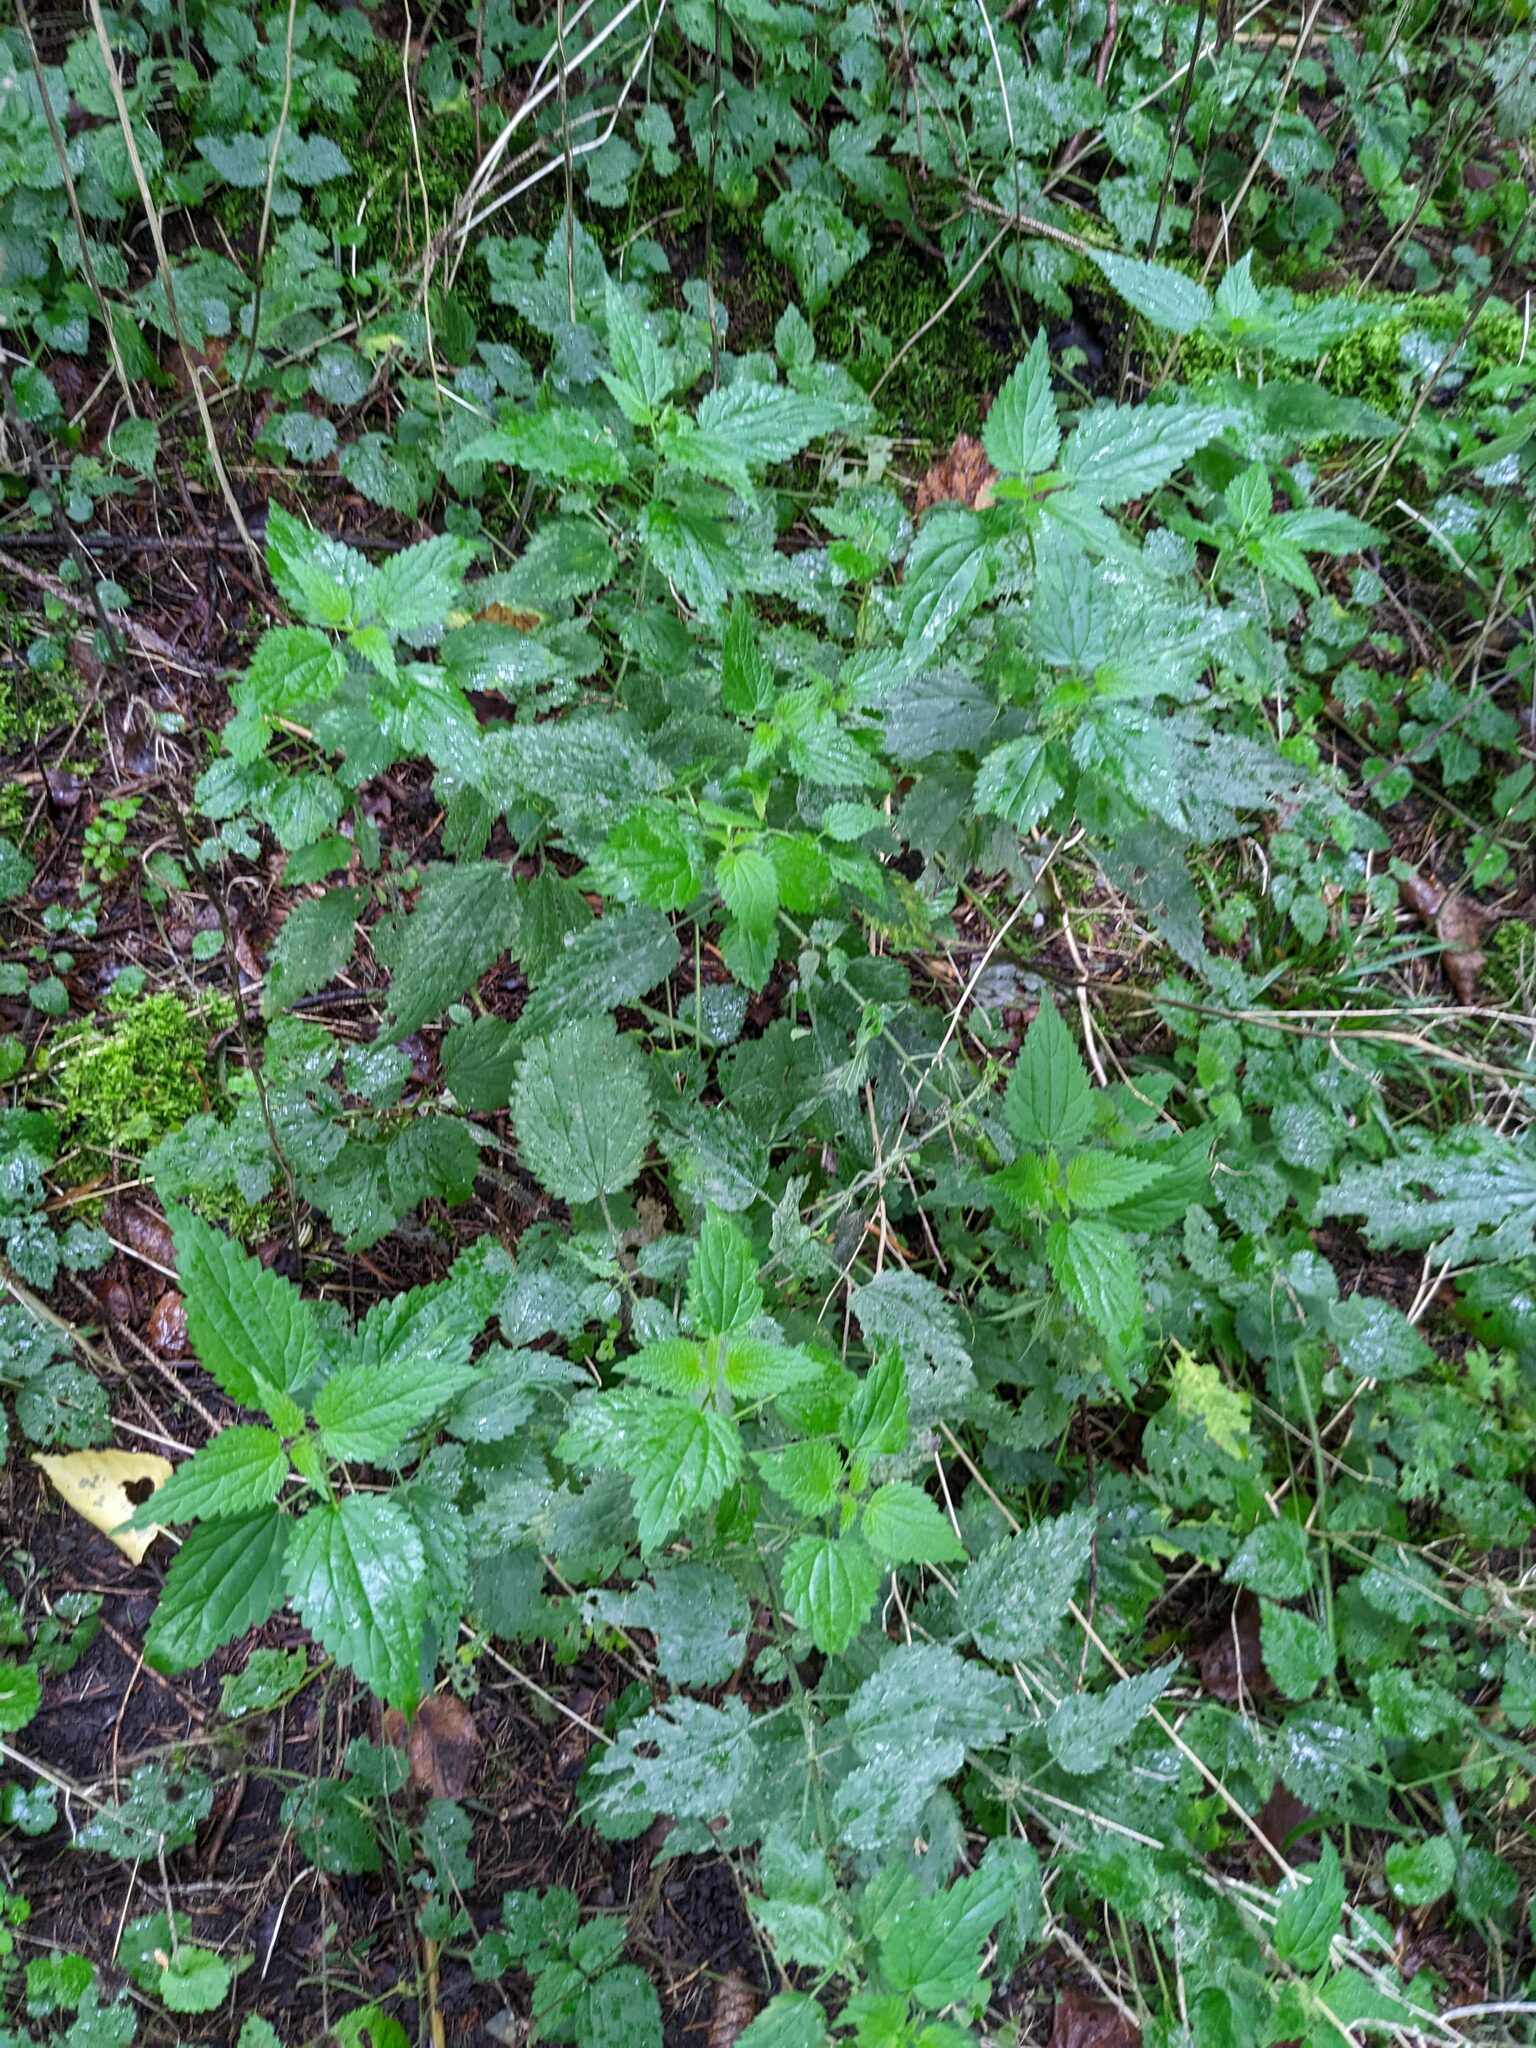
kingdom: Plantae
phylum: Tracheophyta
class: Magnoliopsida
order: Rosales
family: Urticaceae
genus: Urtica
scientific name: Urtica dioica
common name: Common nettle
